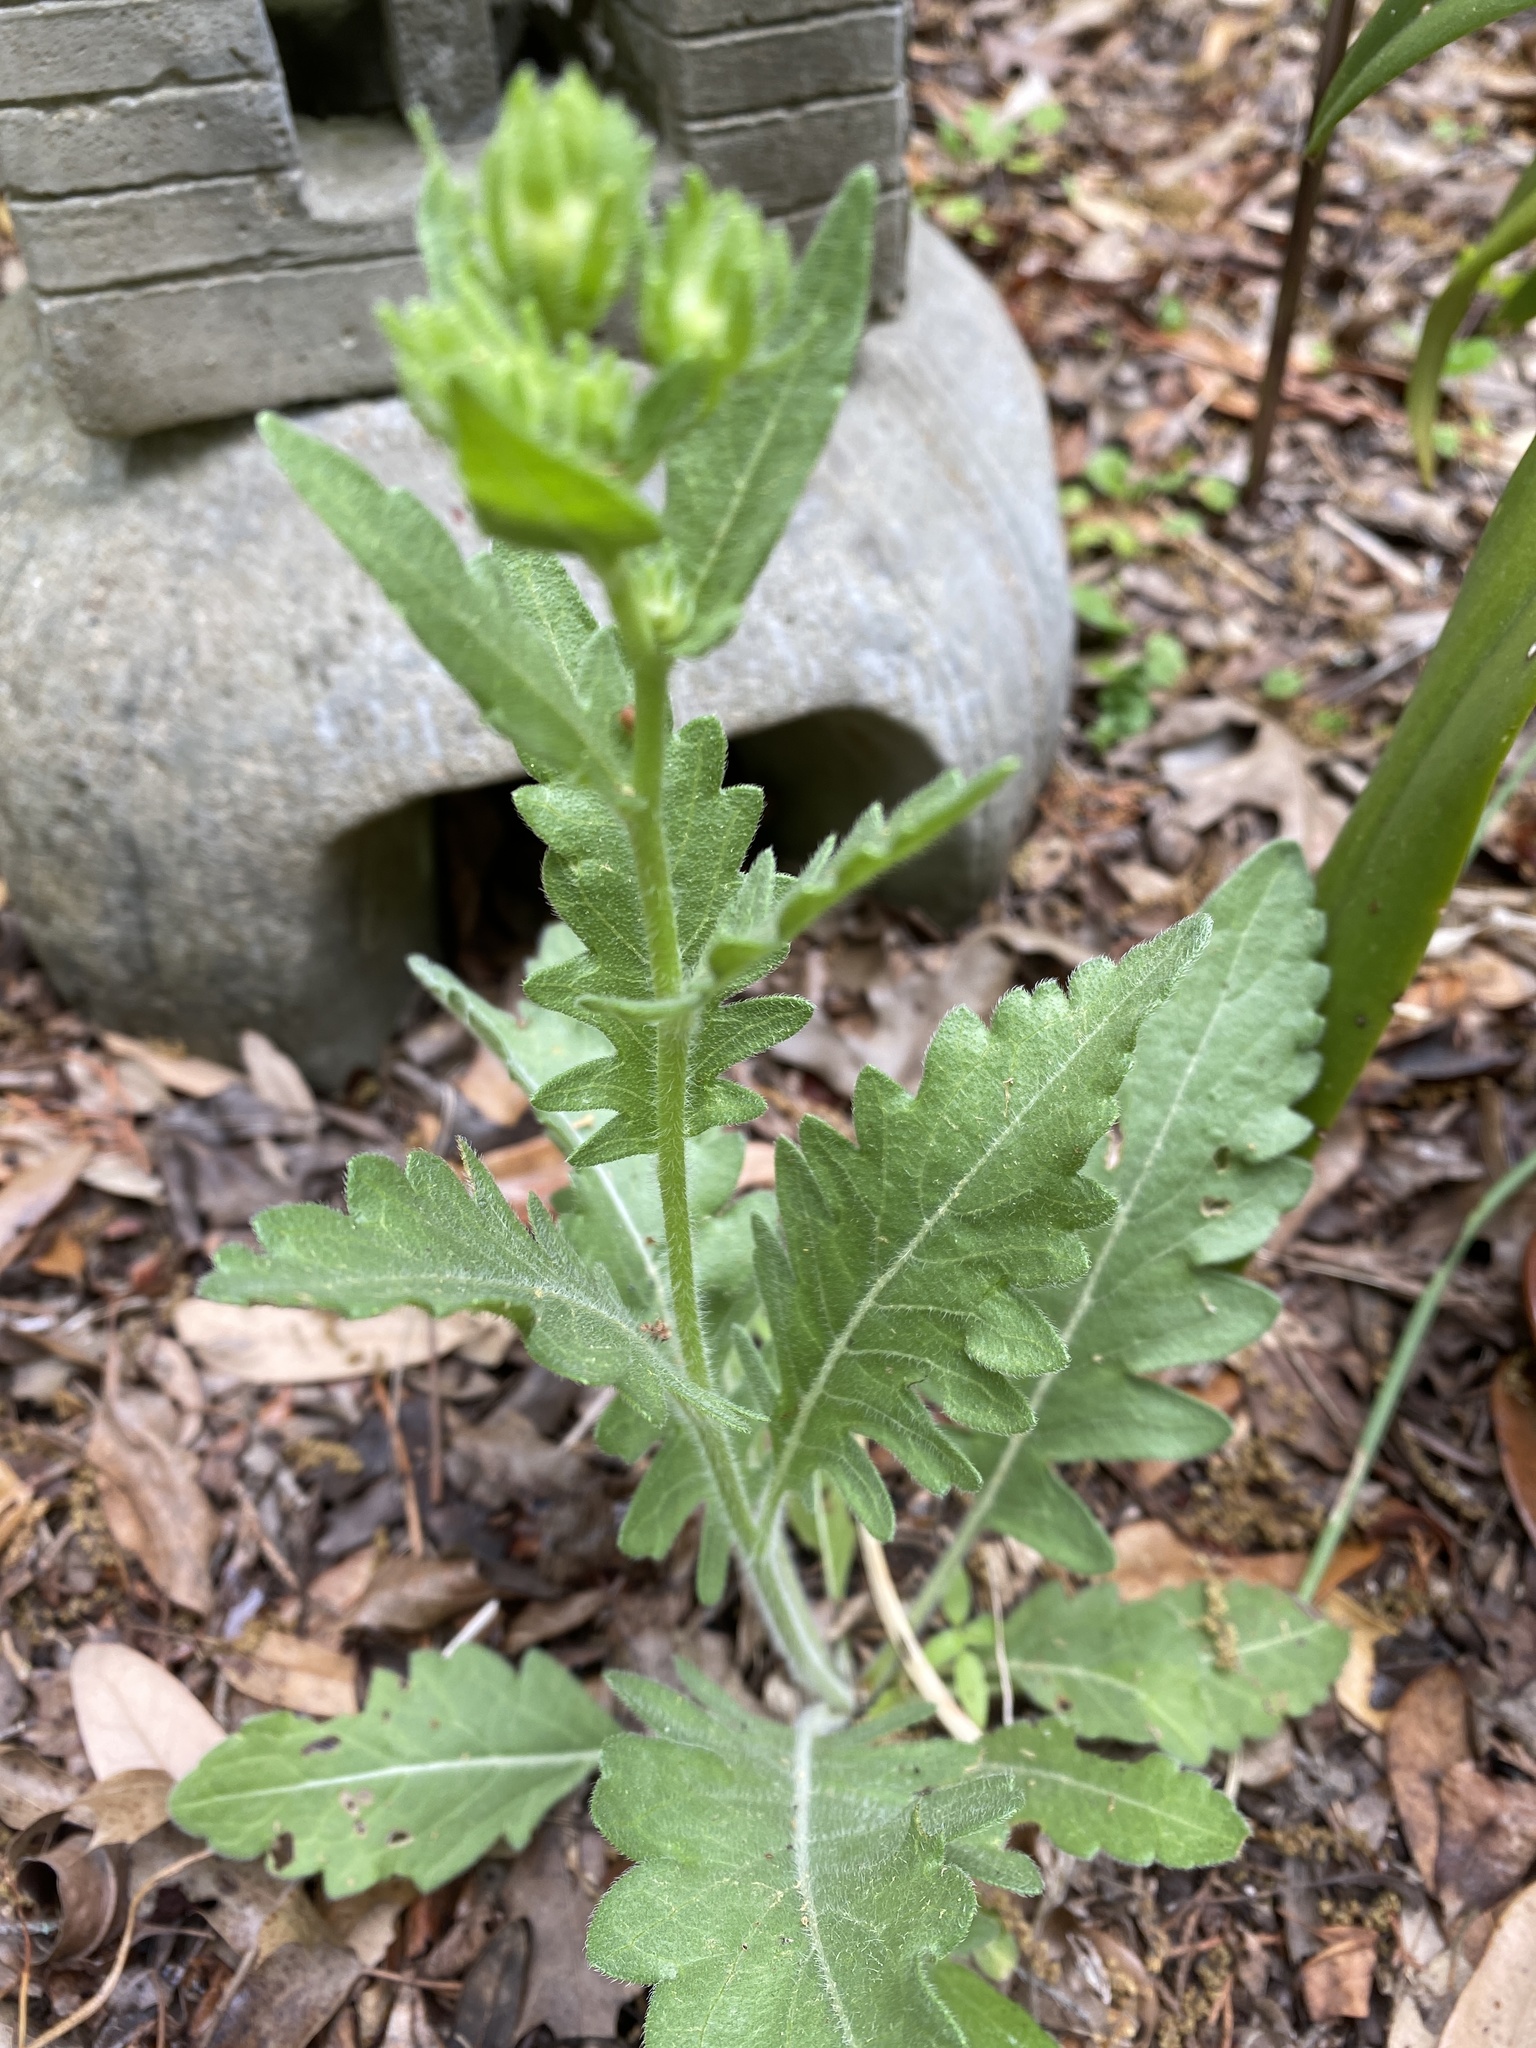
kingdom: Plantae
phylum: Tracheophyta
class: Magnoliopsida
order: Asterales
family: Asteraceae
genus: Engelmannia
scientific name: Engelmannia peristenia
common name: Engelmann's daisy
